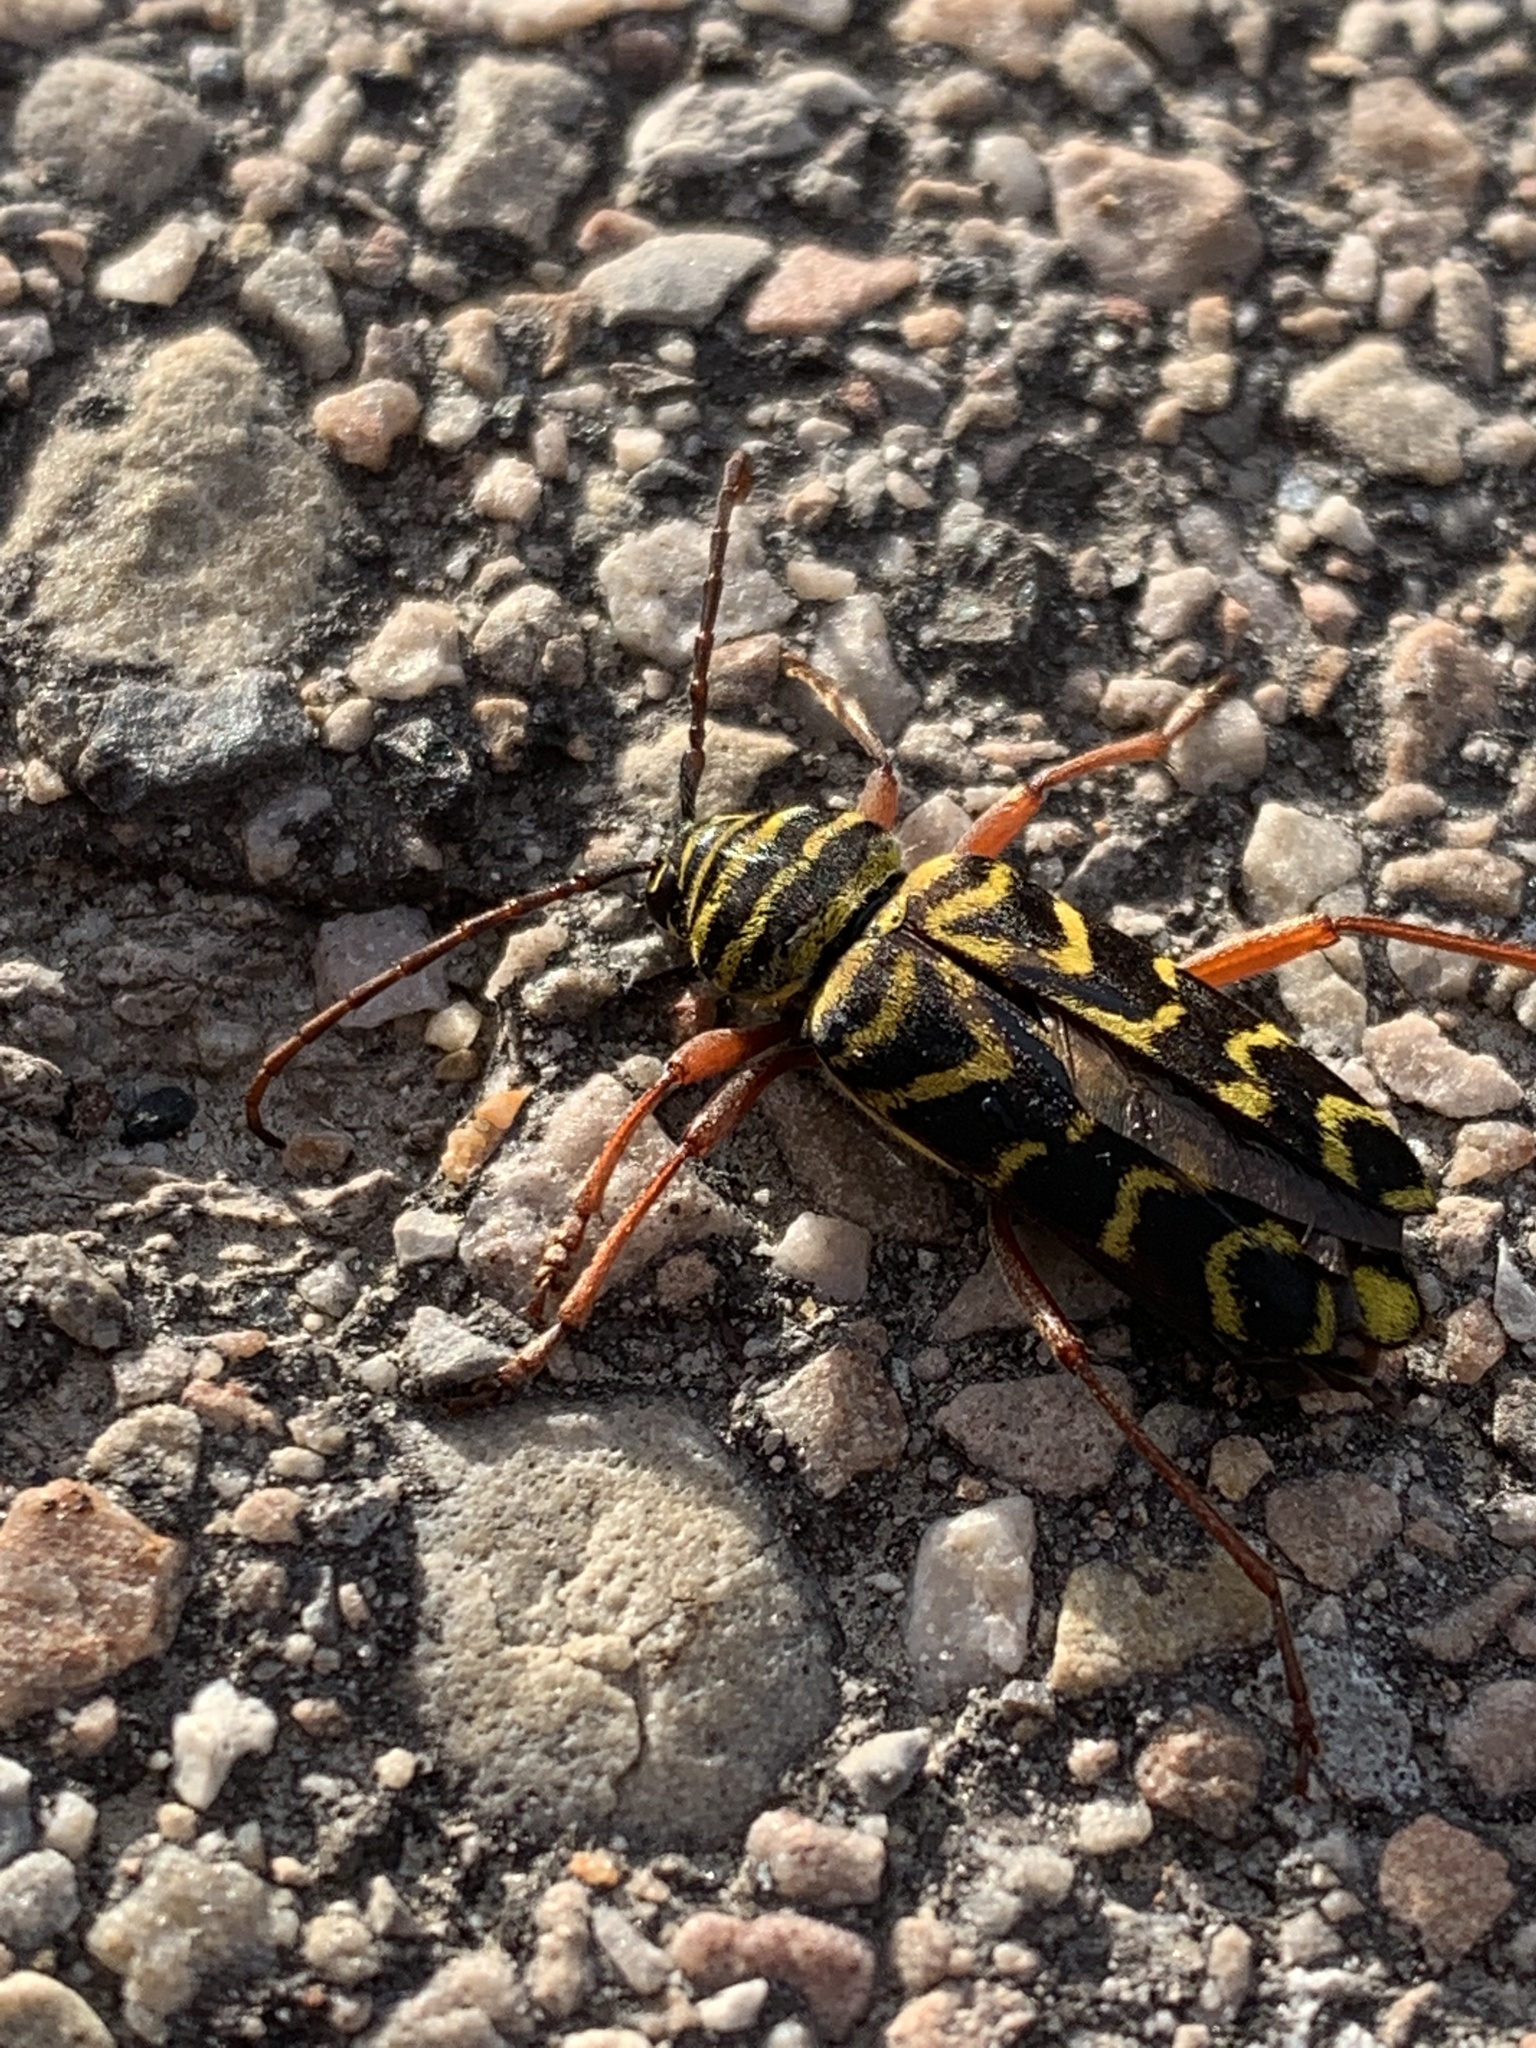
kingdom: Animalia
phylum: Arthropoda
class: Insecta
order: Coleoptera
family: Cerambycidae
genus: Megacyllene
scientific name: Megacyllene robiniae
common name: Locust borer
